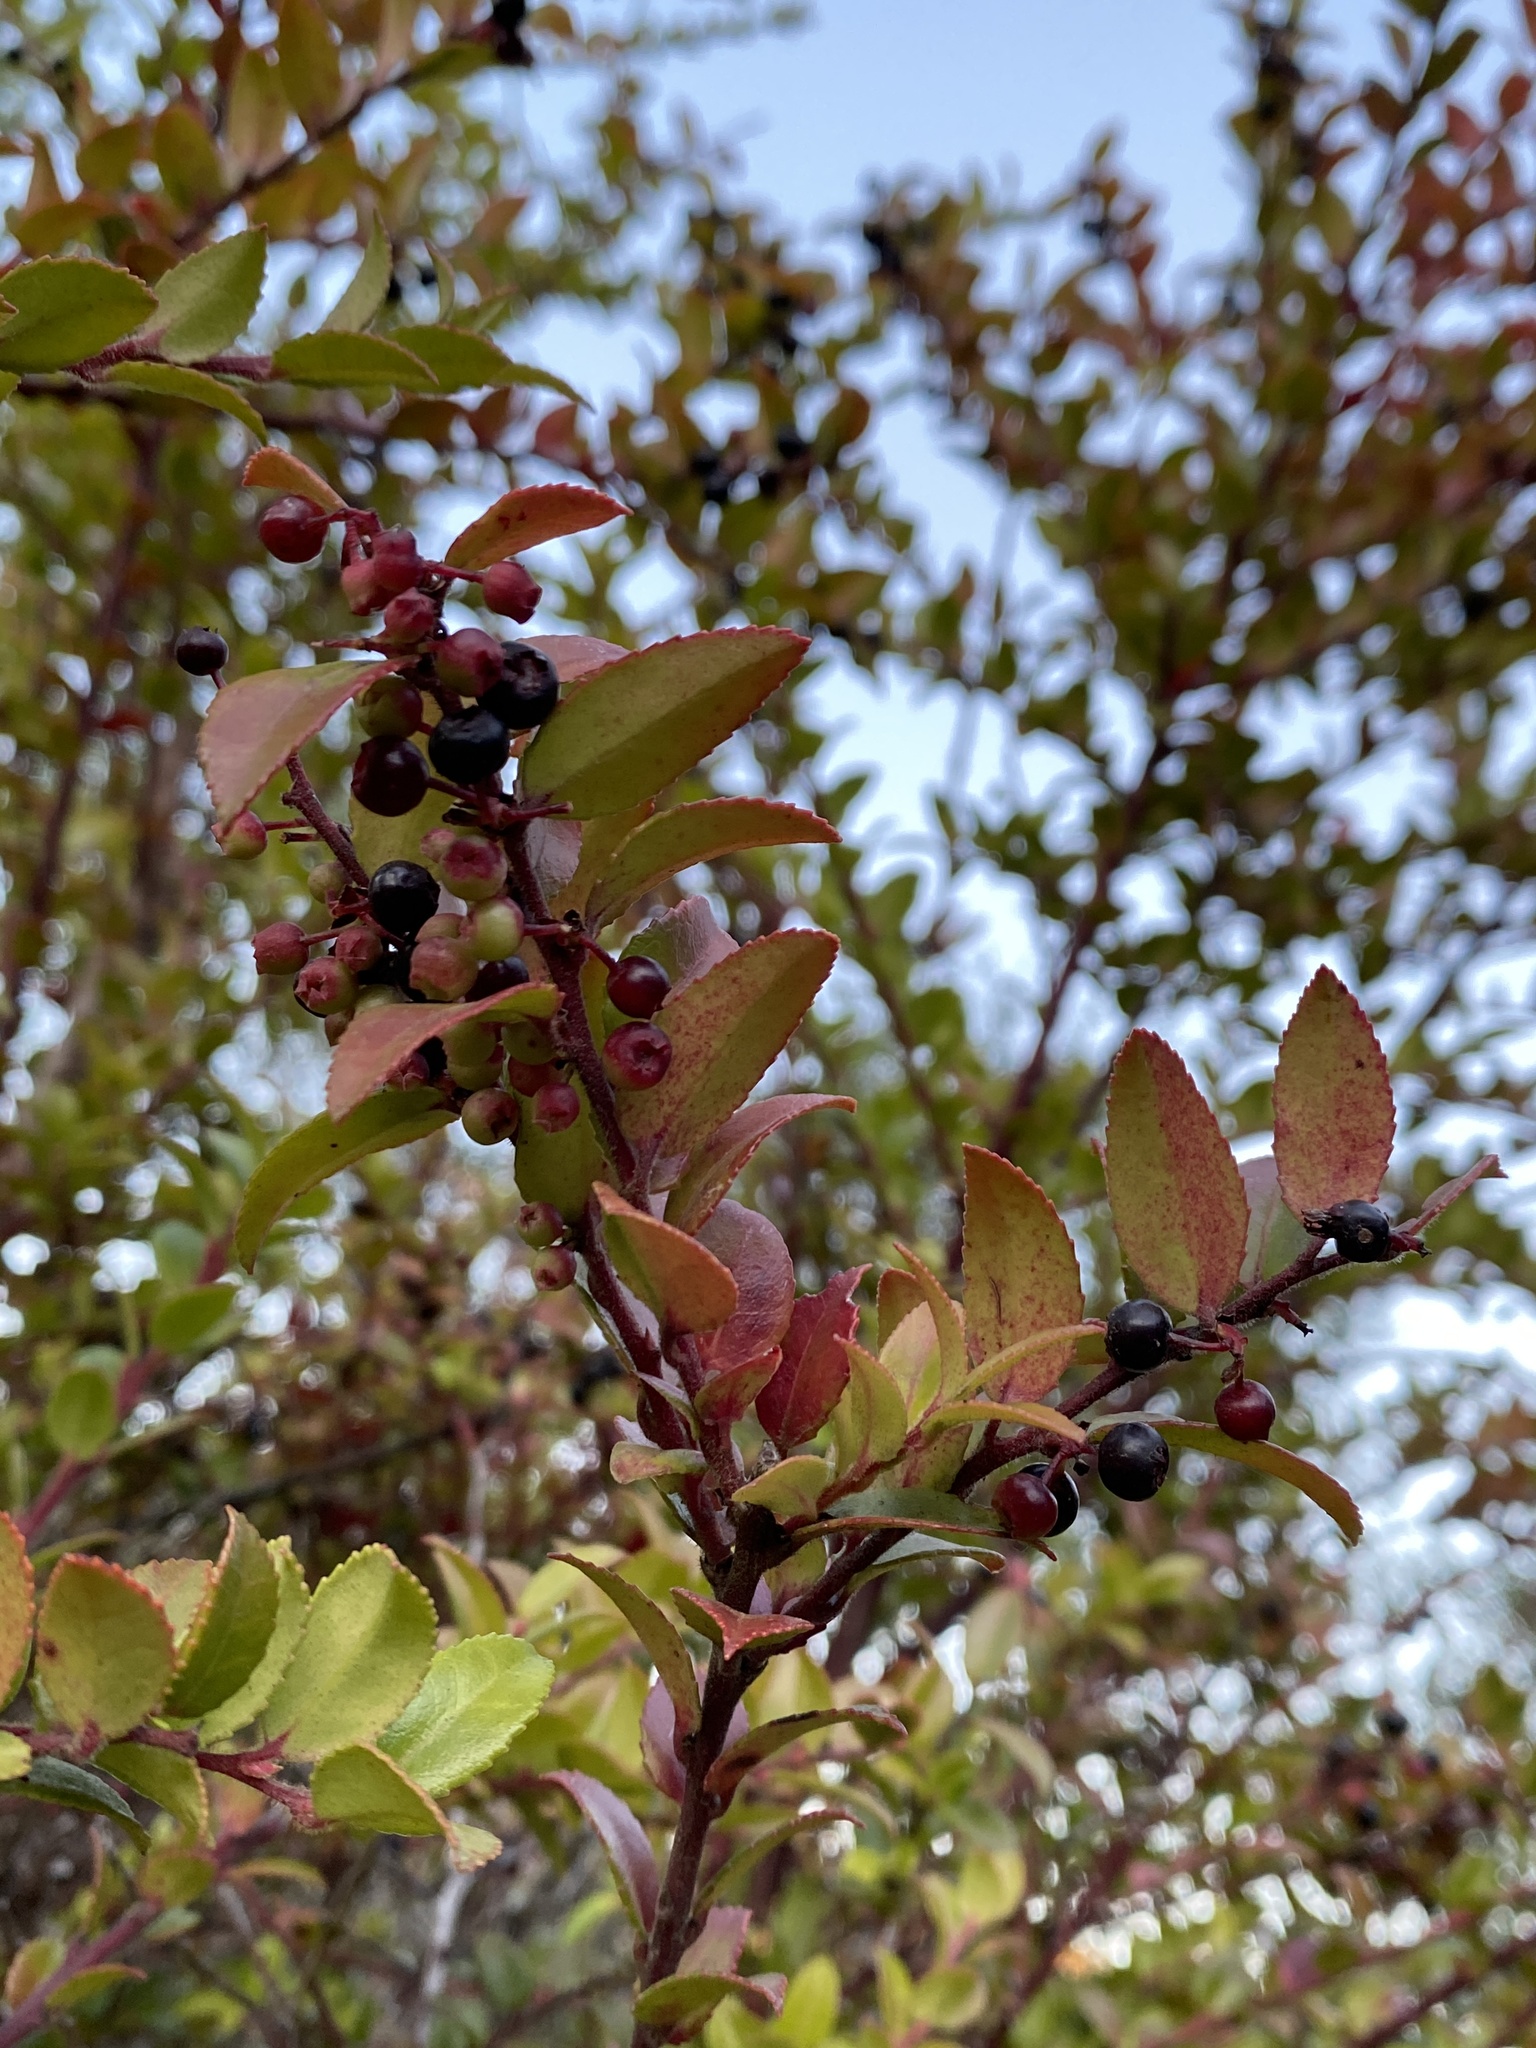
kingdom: Plantae
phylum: Tracheophyta
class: Magnoliopsida
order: Ericales
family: Ericaceae
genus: Vaccinium
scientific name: Vaccinium ovatum
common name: California-huckleberry
